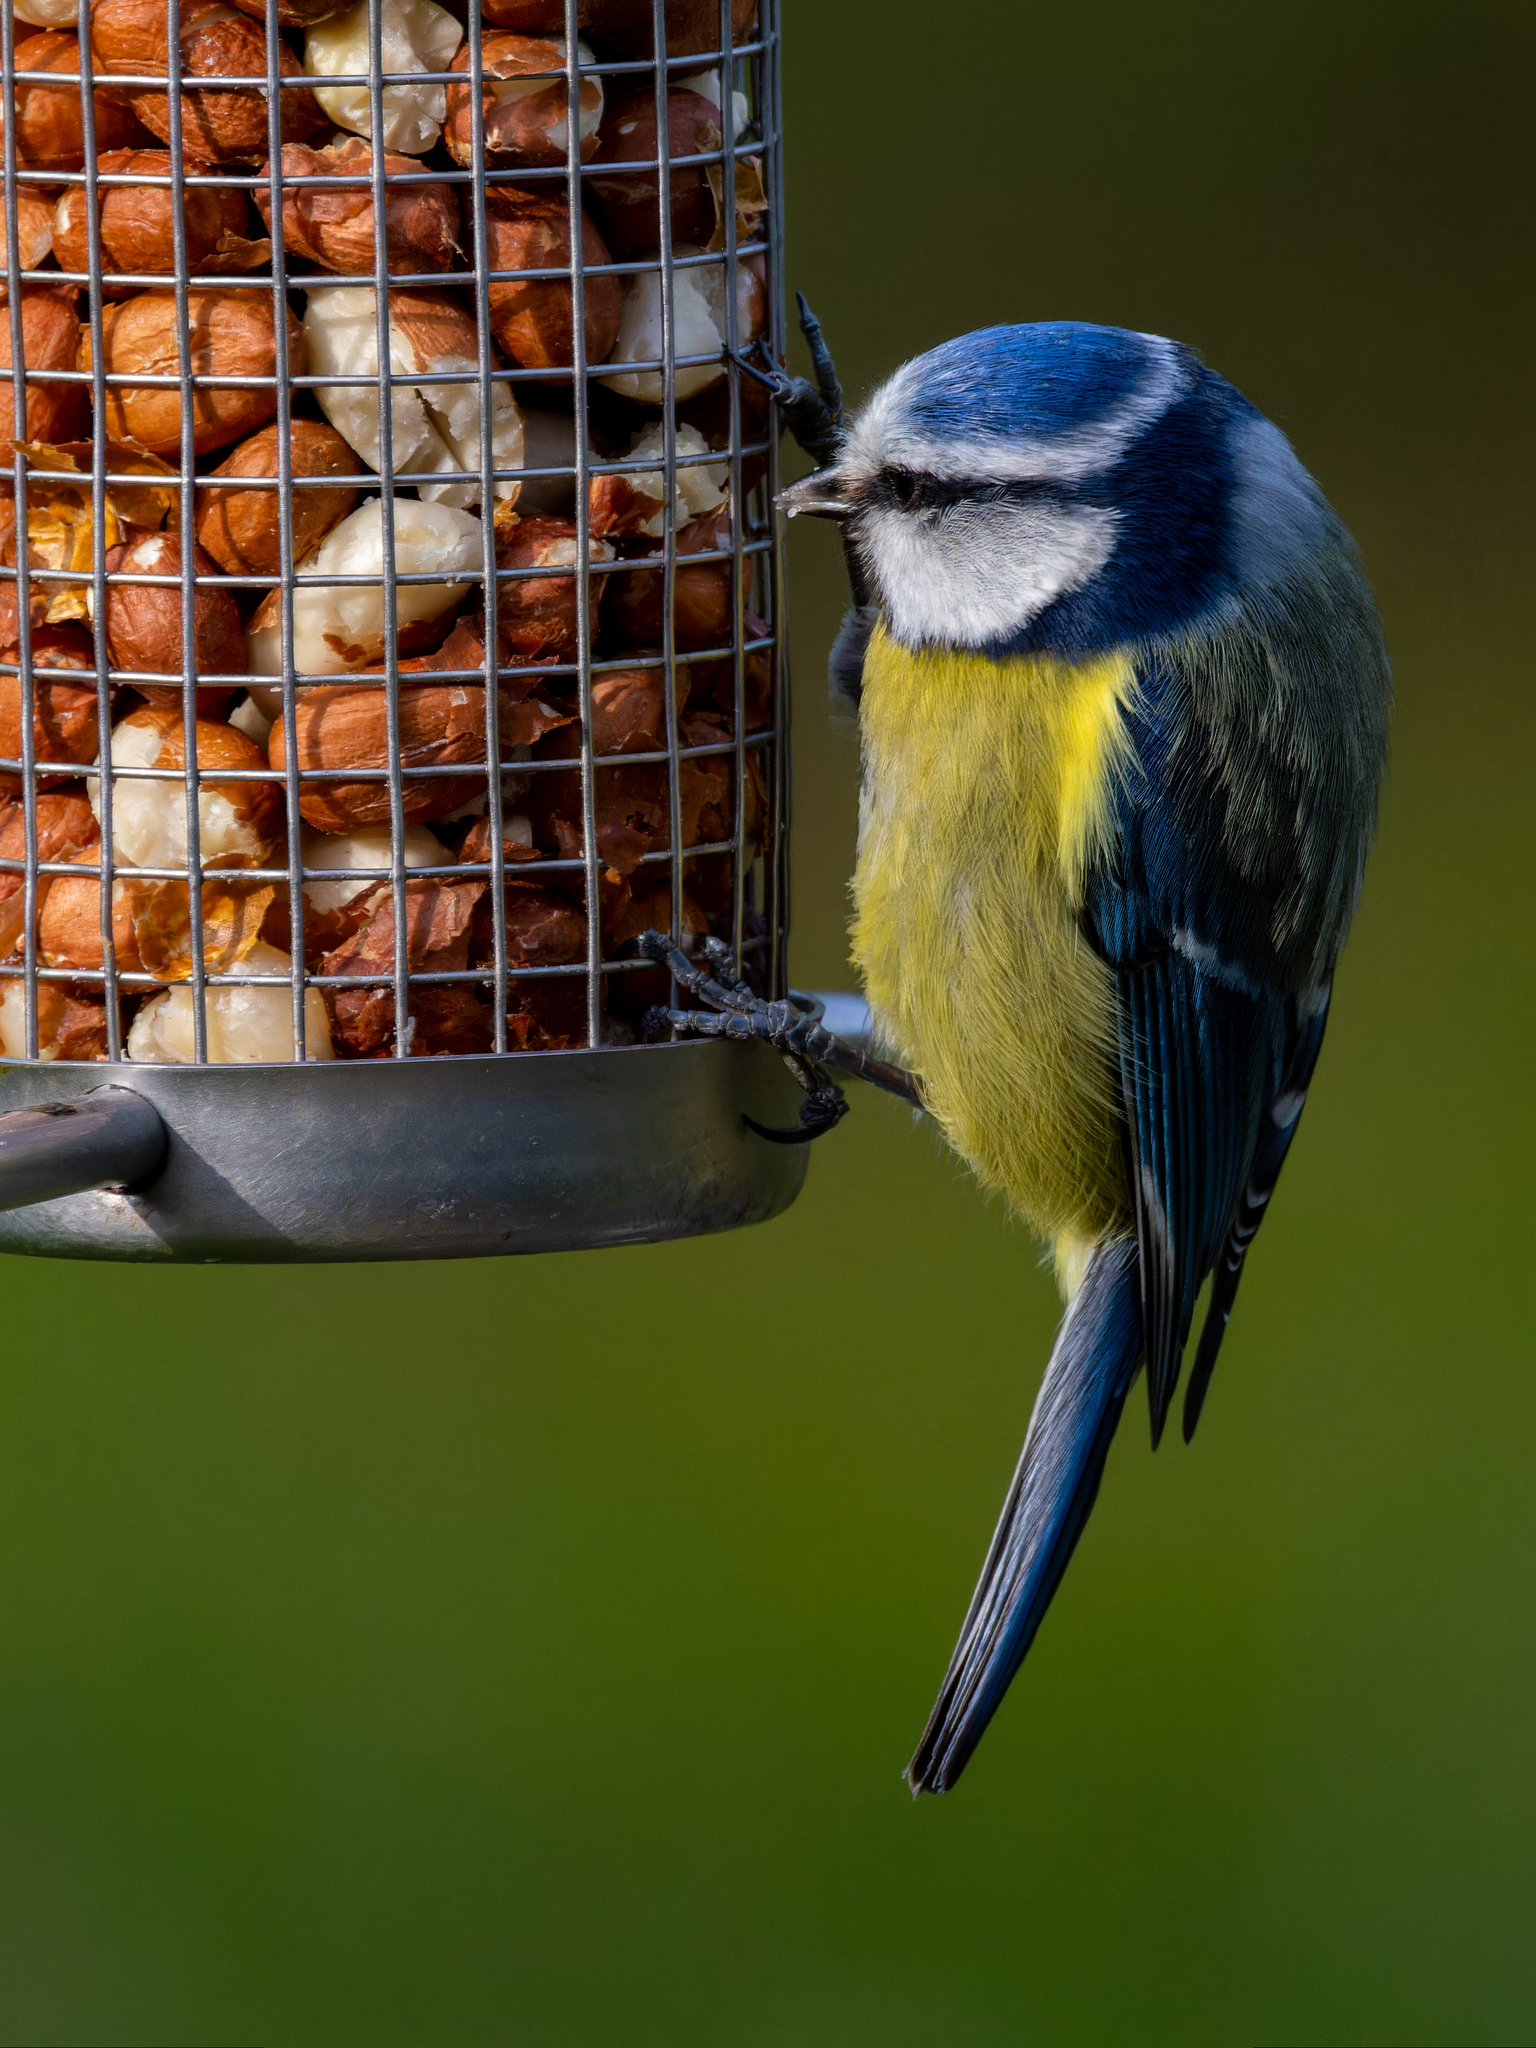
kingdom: Animalia
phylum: Chordata
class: Aves
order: Passeriformes
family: Paridae
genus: Cyanistes
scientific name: Cyanistes caeruleus
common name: Eurasian blue tit
